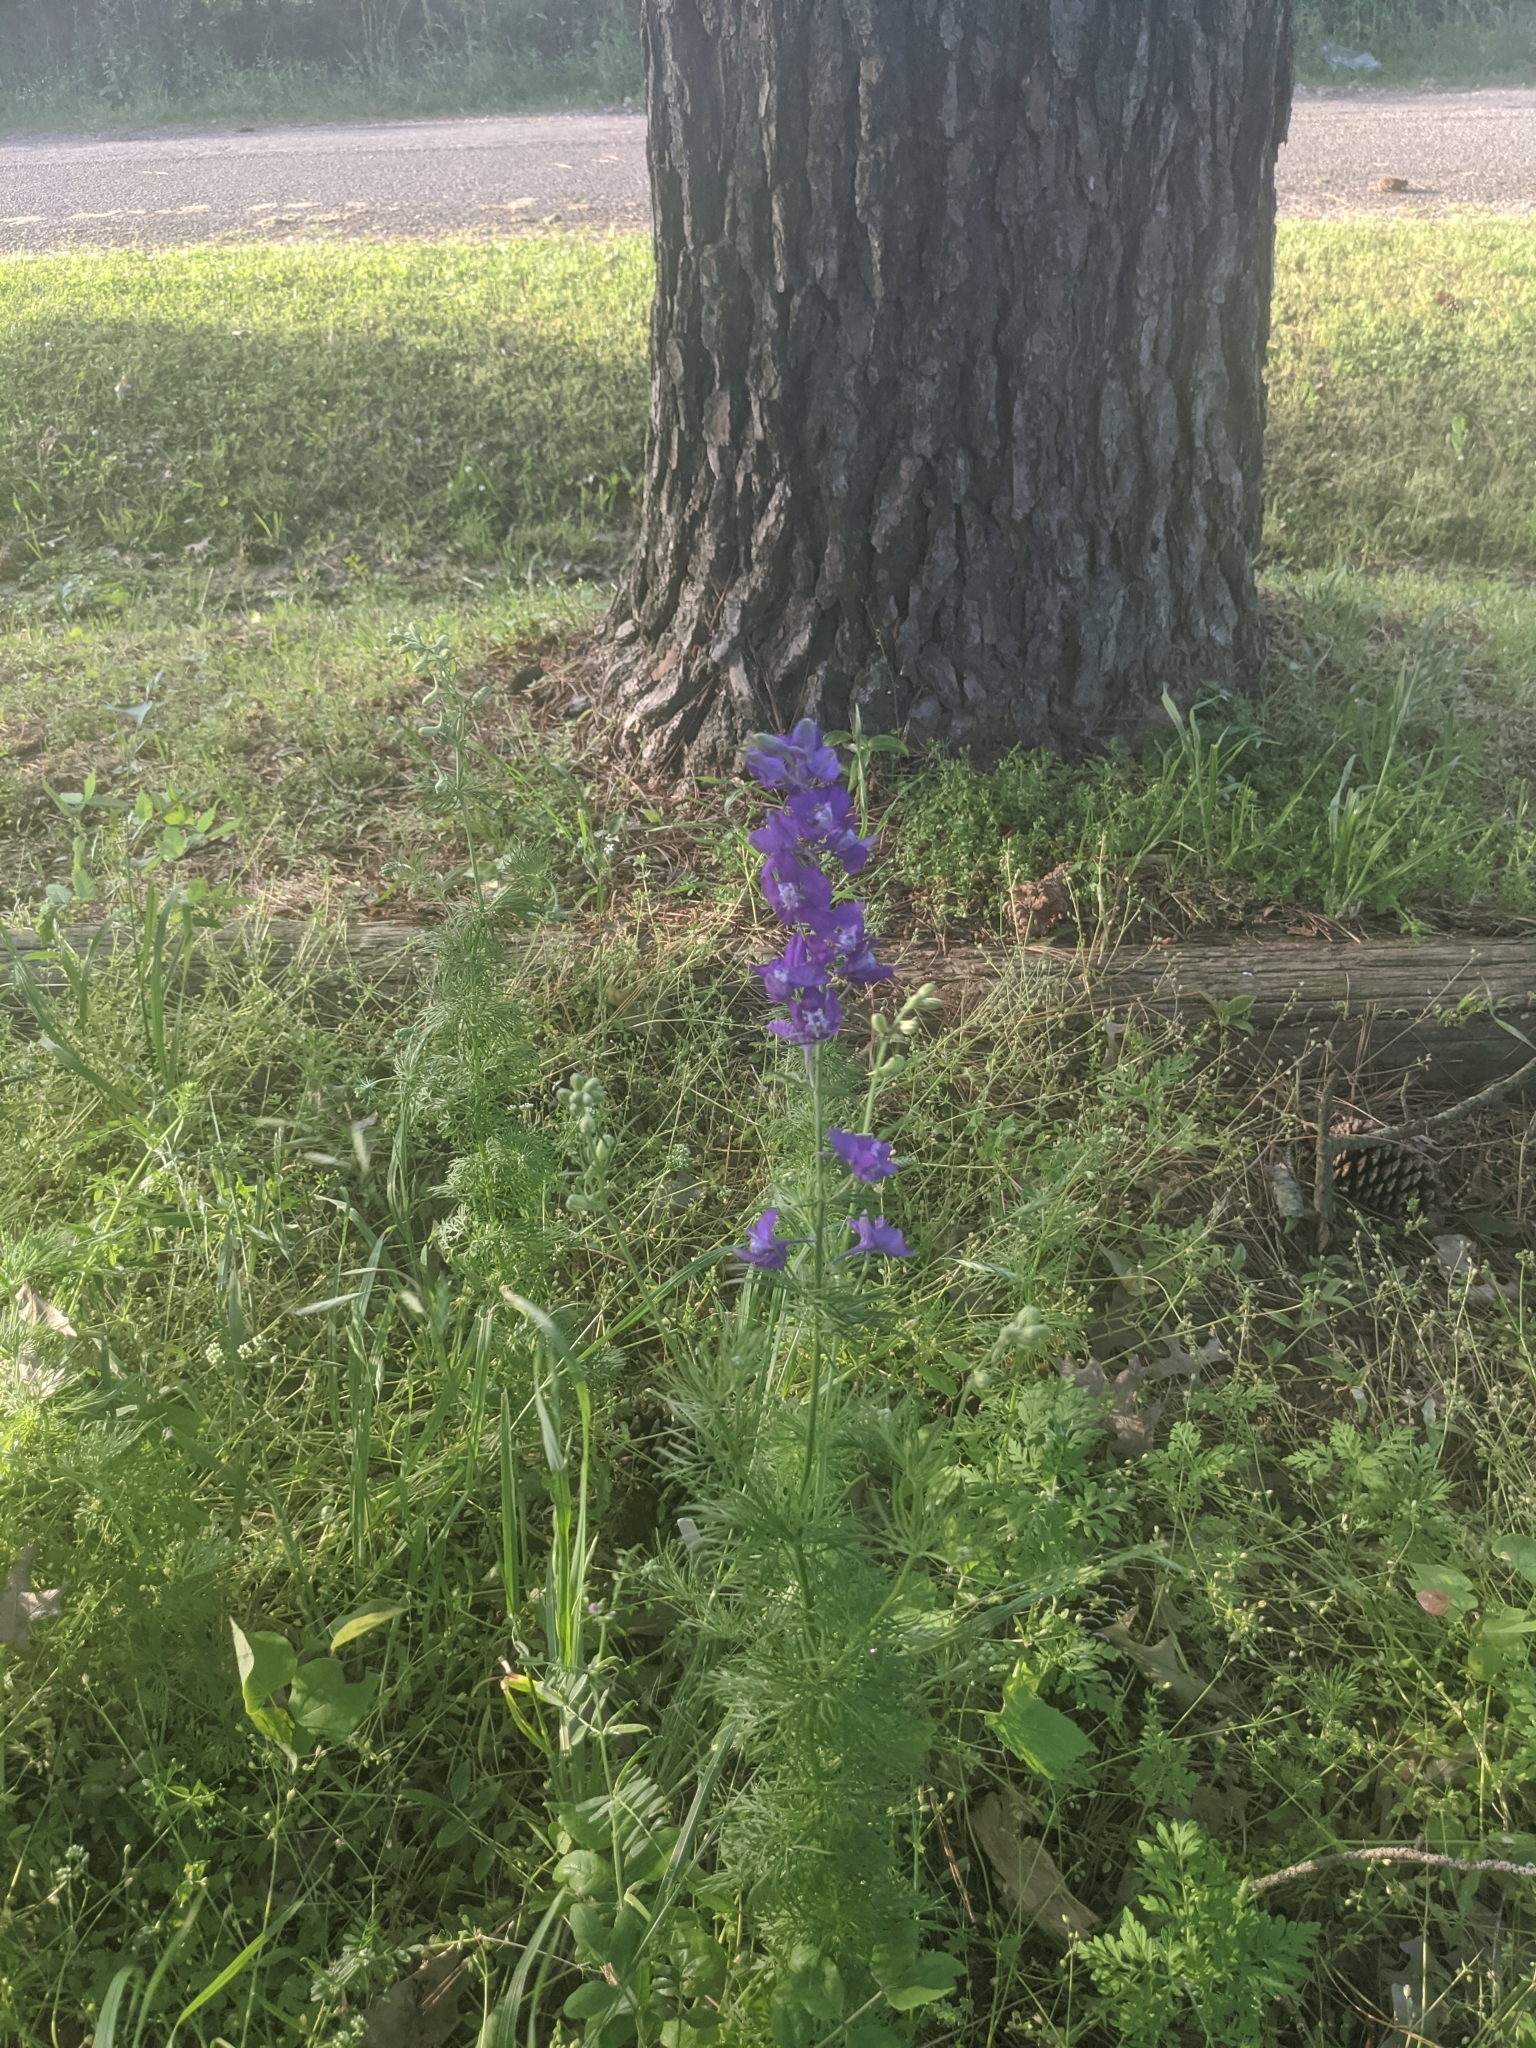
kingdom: Plantae
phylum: Tracheophyta
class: Magnoliopsida
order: Ranunculales
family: Ranunculaceae
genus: Delphinium
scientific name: Delphinium ajacis
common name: Doubtful knight's-spur
